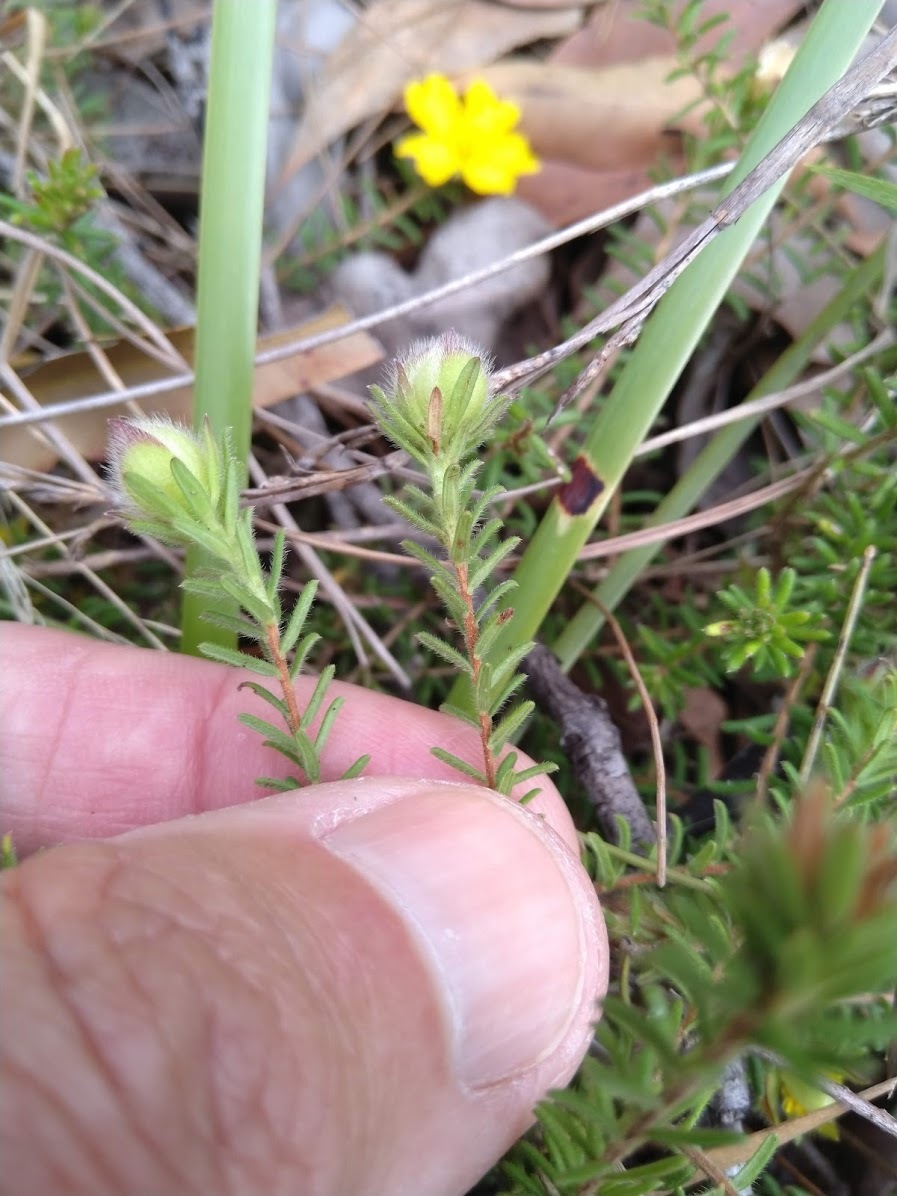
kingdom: Plantae
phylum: Tracheophyta
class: Magnoliopsida
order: Dilleniales
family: Dilleniaceae
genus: Hibbertia
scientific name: Hibbertia vestita
